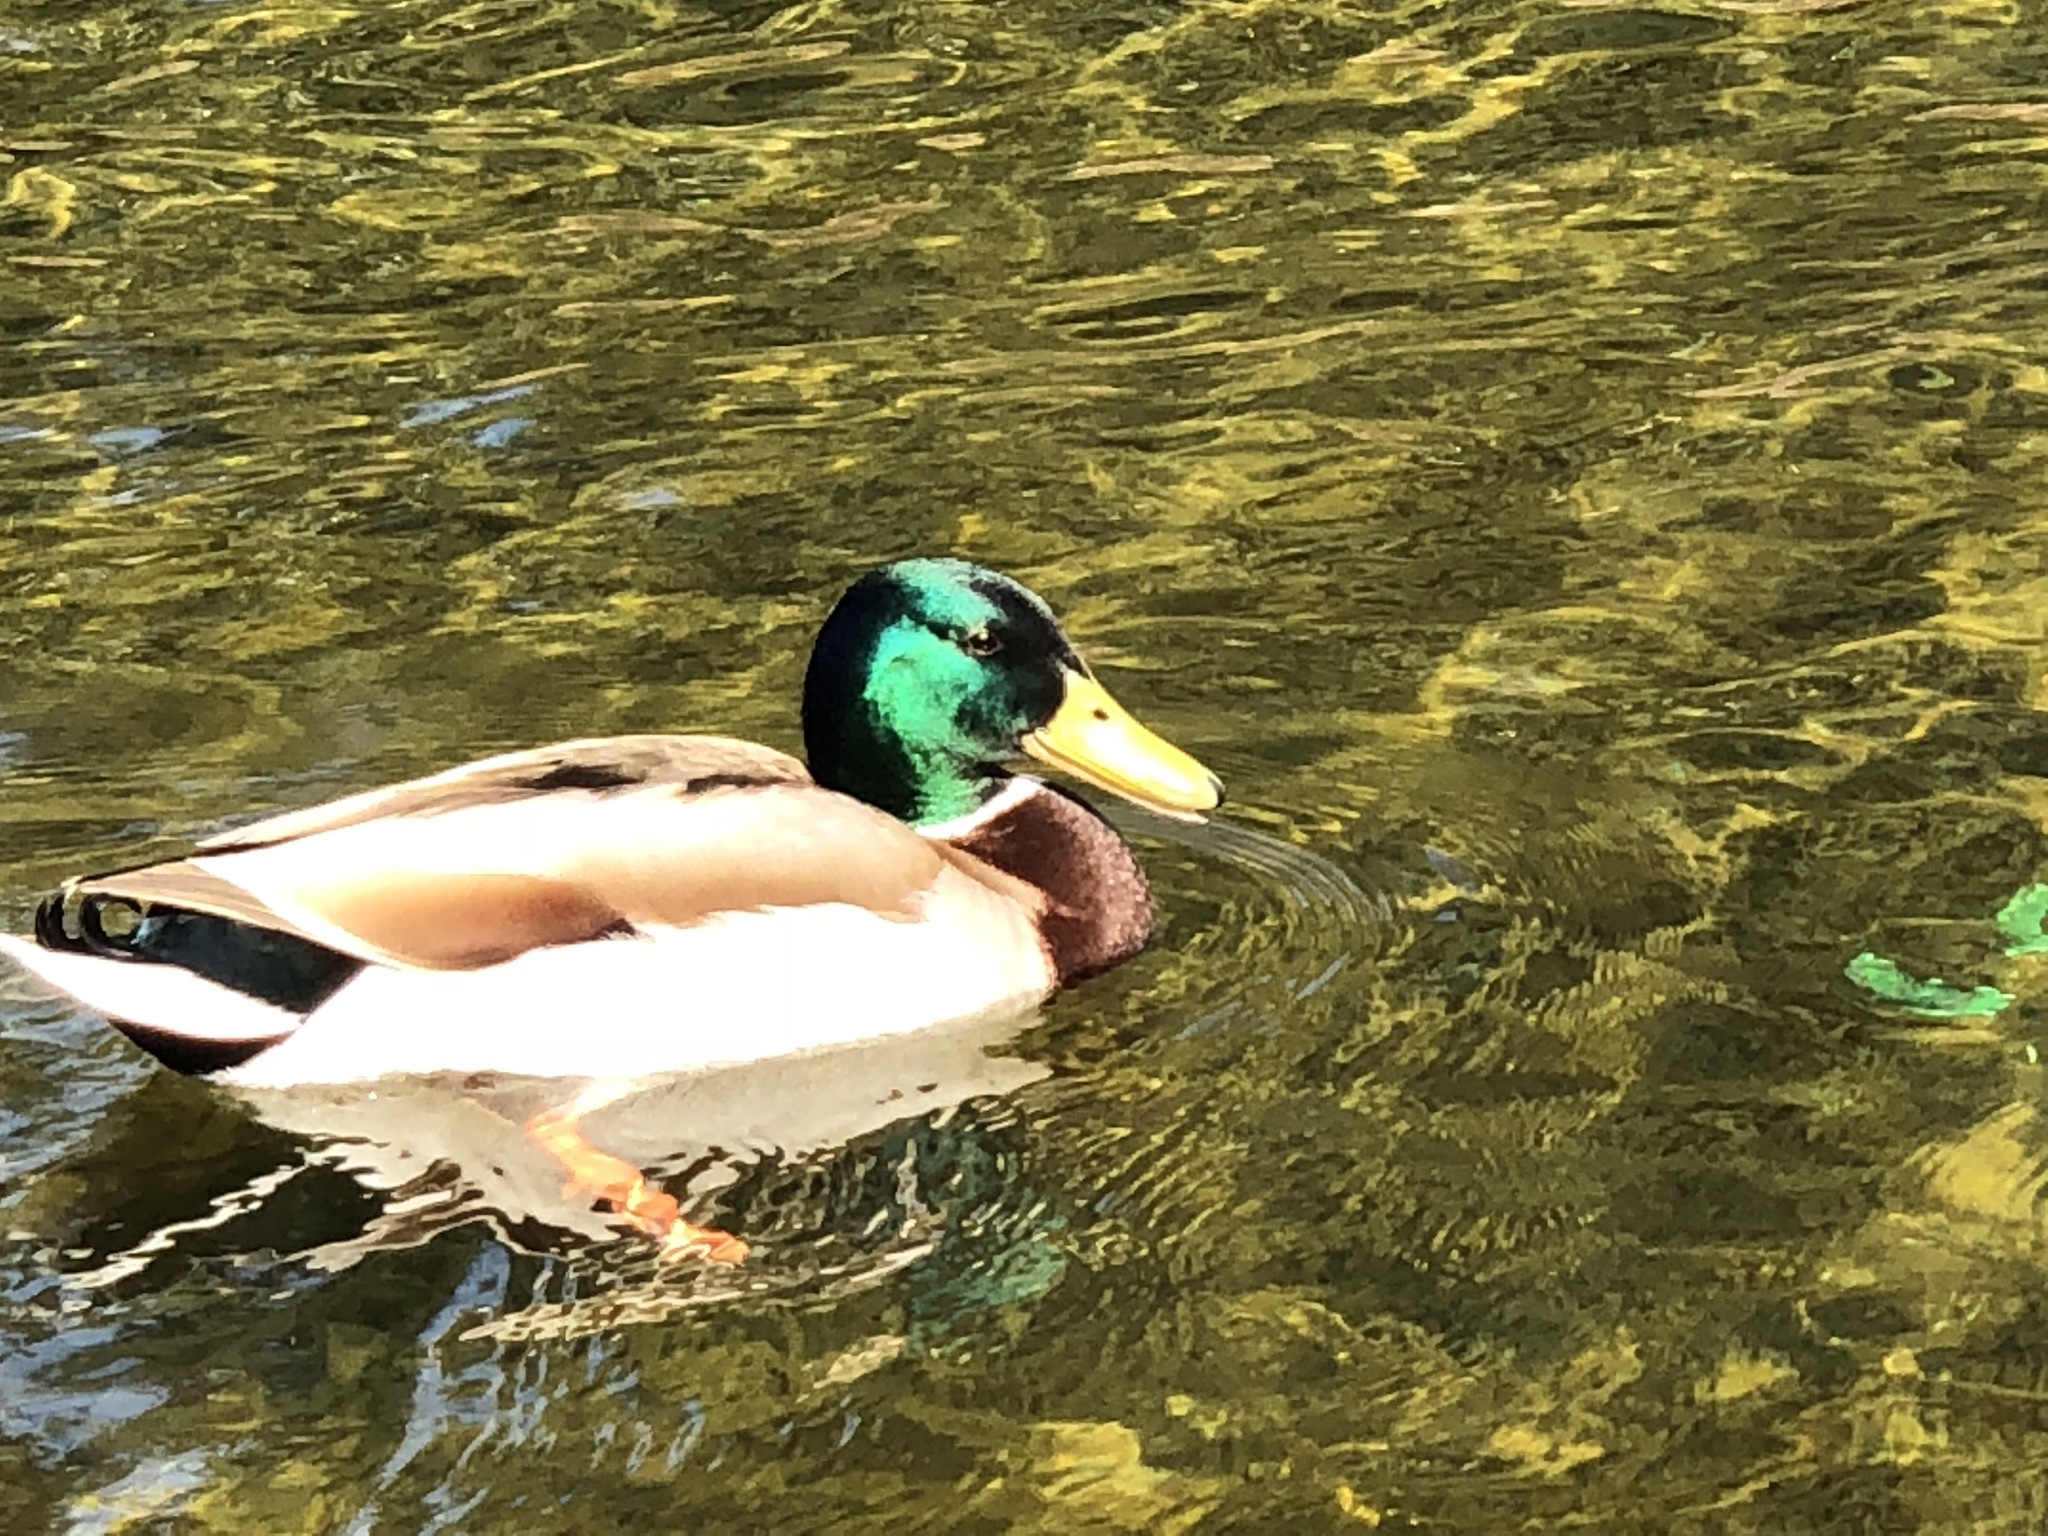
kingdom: Animalia
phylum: Chordata
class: Aves
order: Anseriformes
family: Anatidae
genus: Anas
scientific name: Anas platyrhynchos
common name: Mallard
